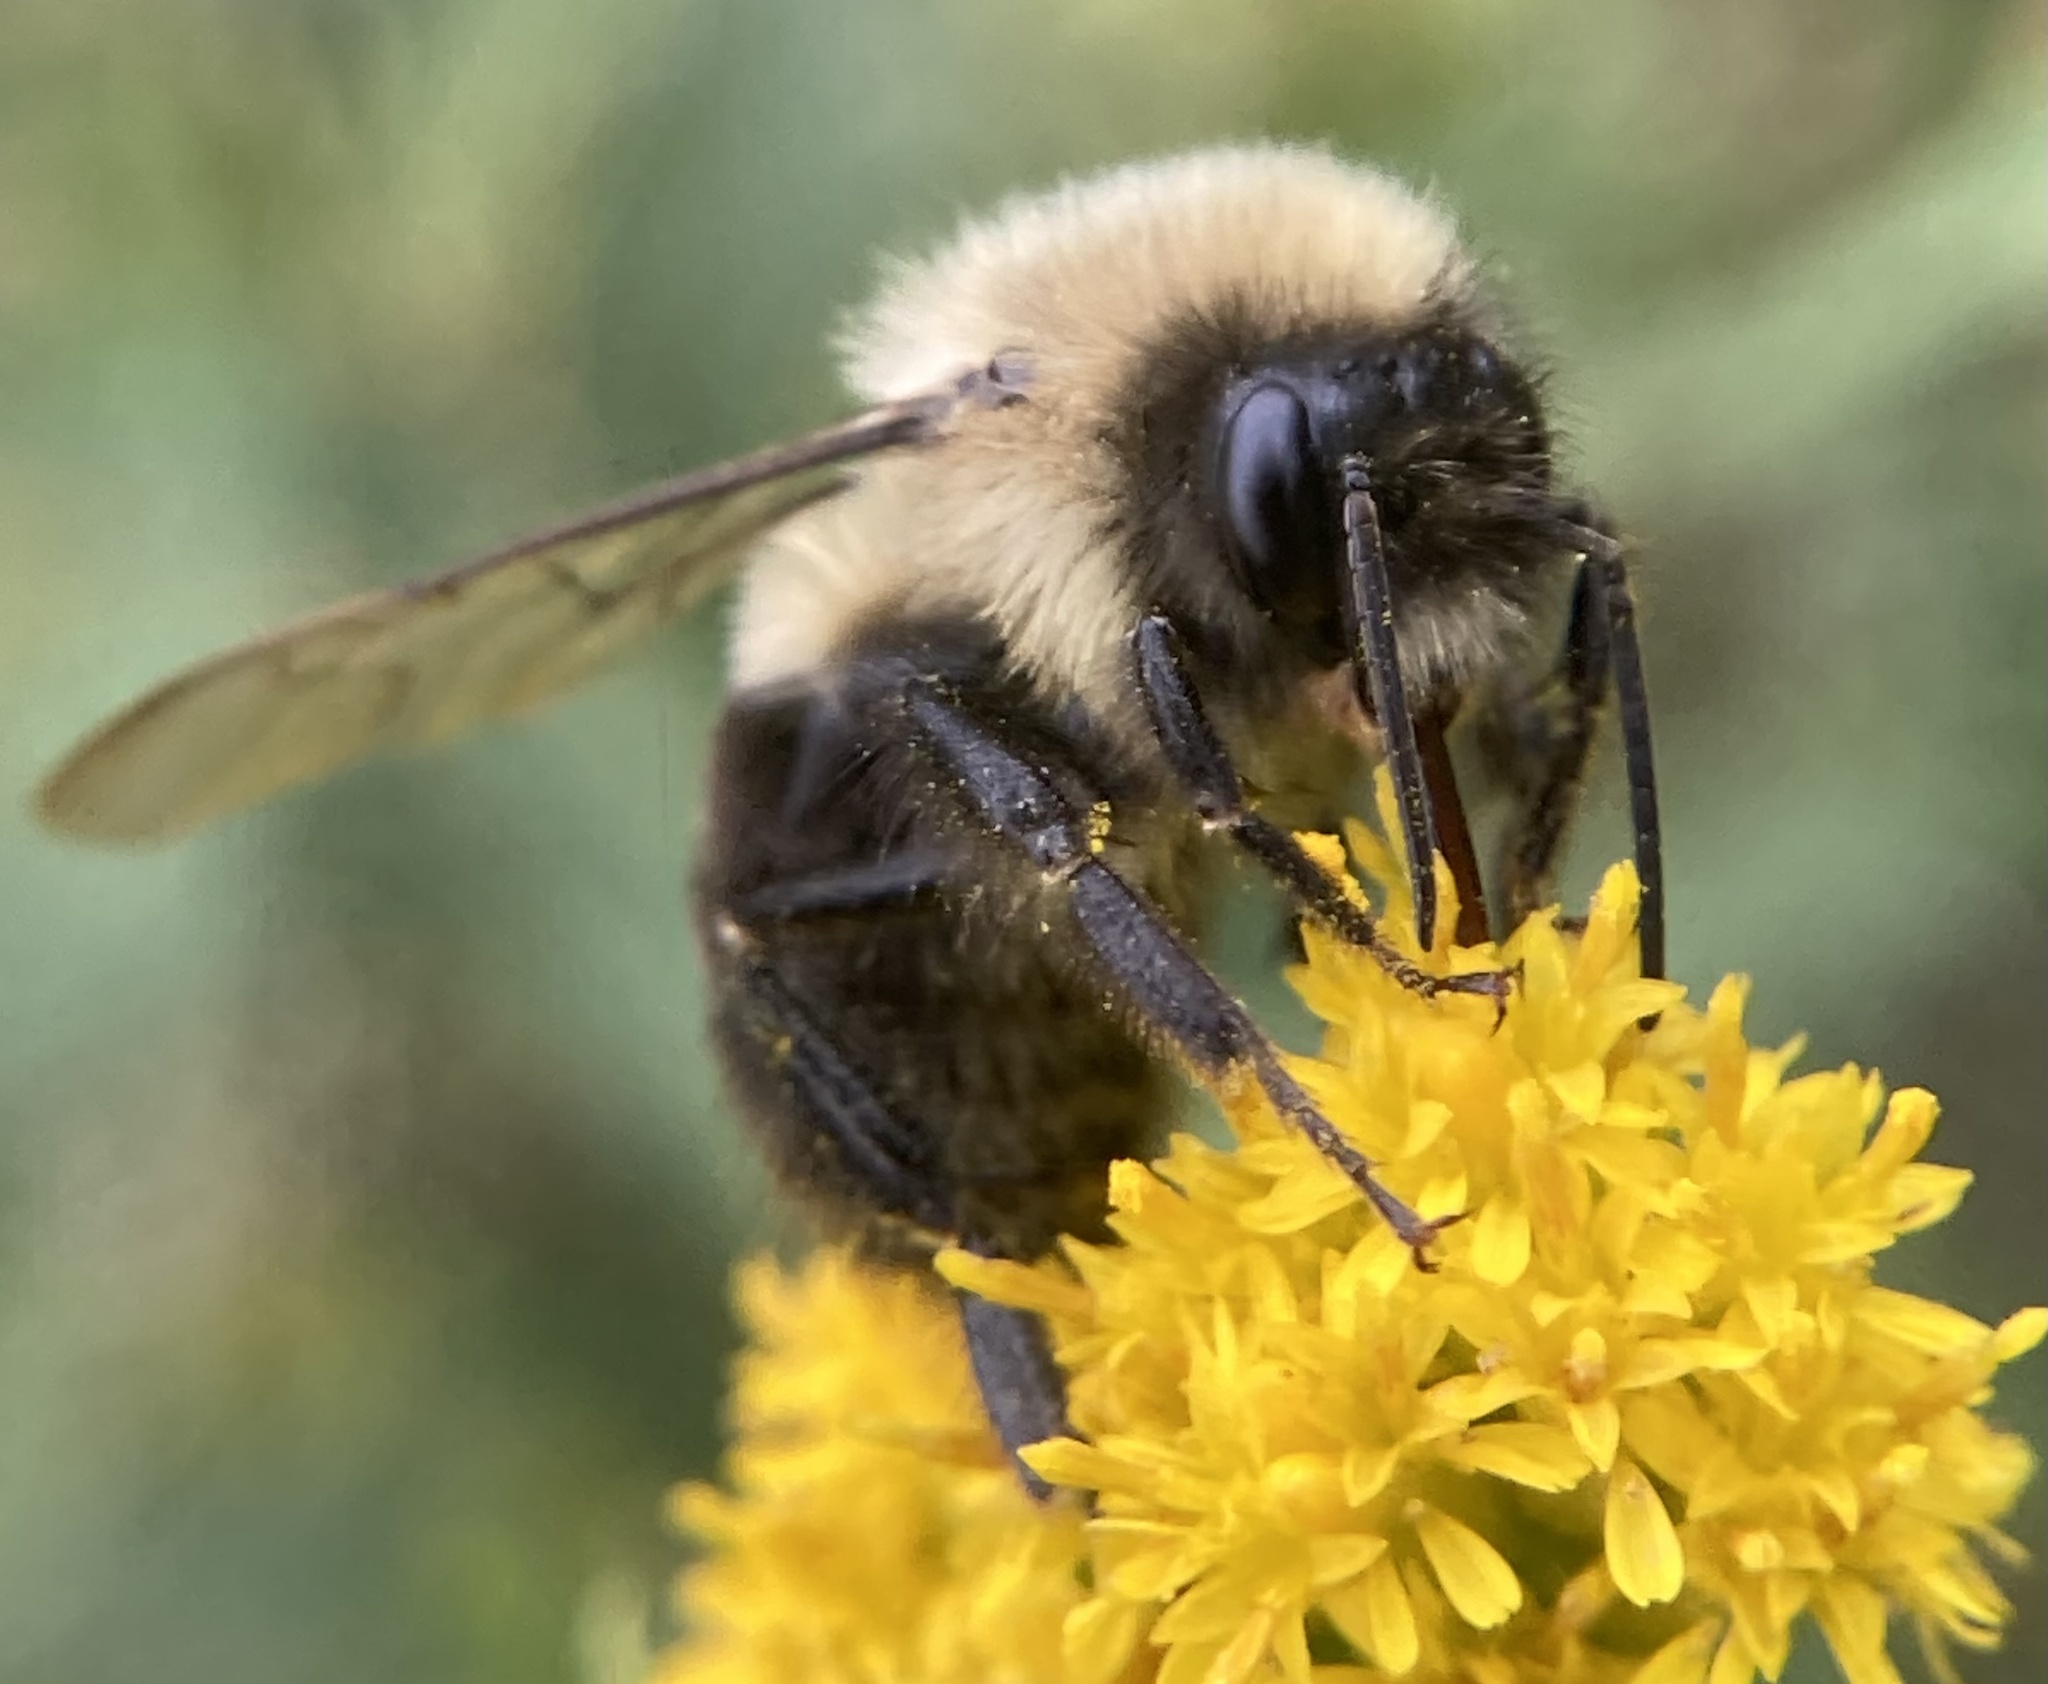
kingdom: Animalia
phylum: Arthropoda
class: Insecta
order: Hymenoptera
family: Apidae
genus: Bombus
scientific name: Bombus impatiens
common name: Common eastern bumble bee
